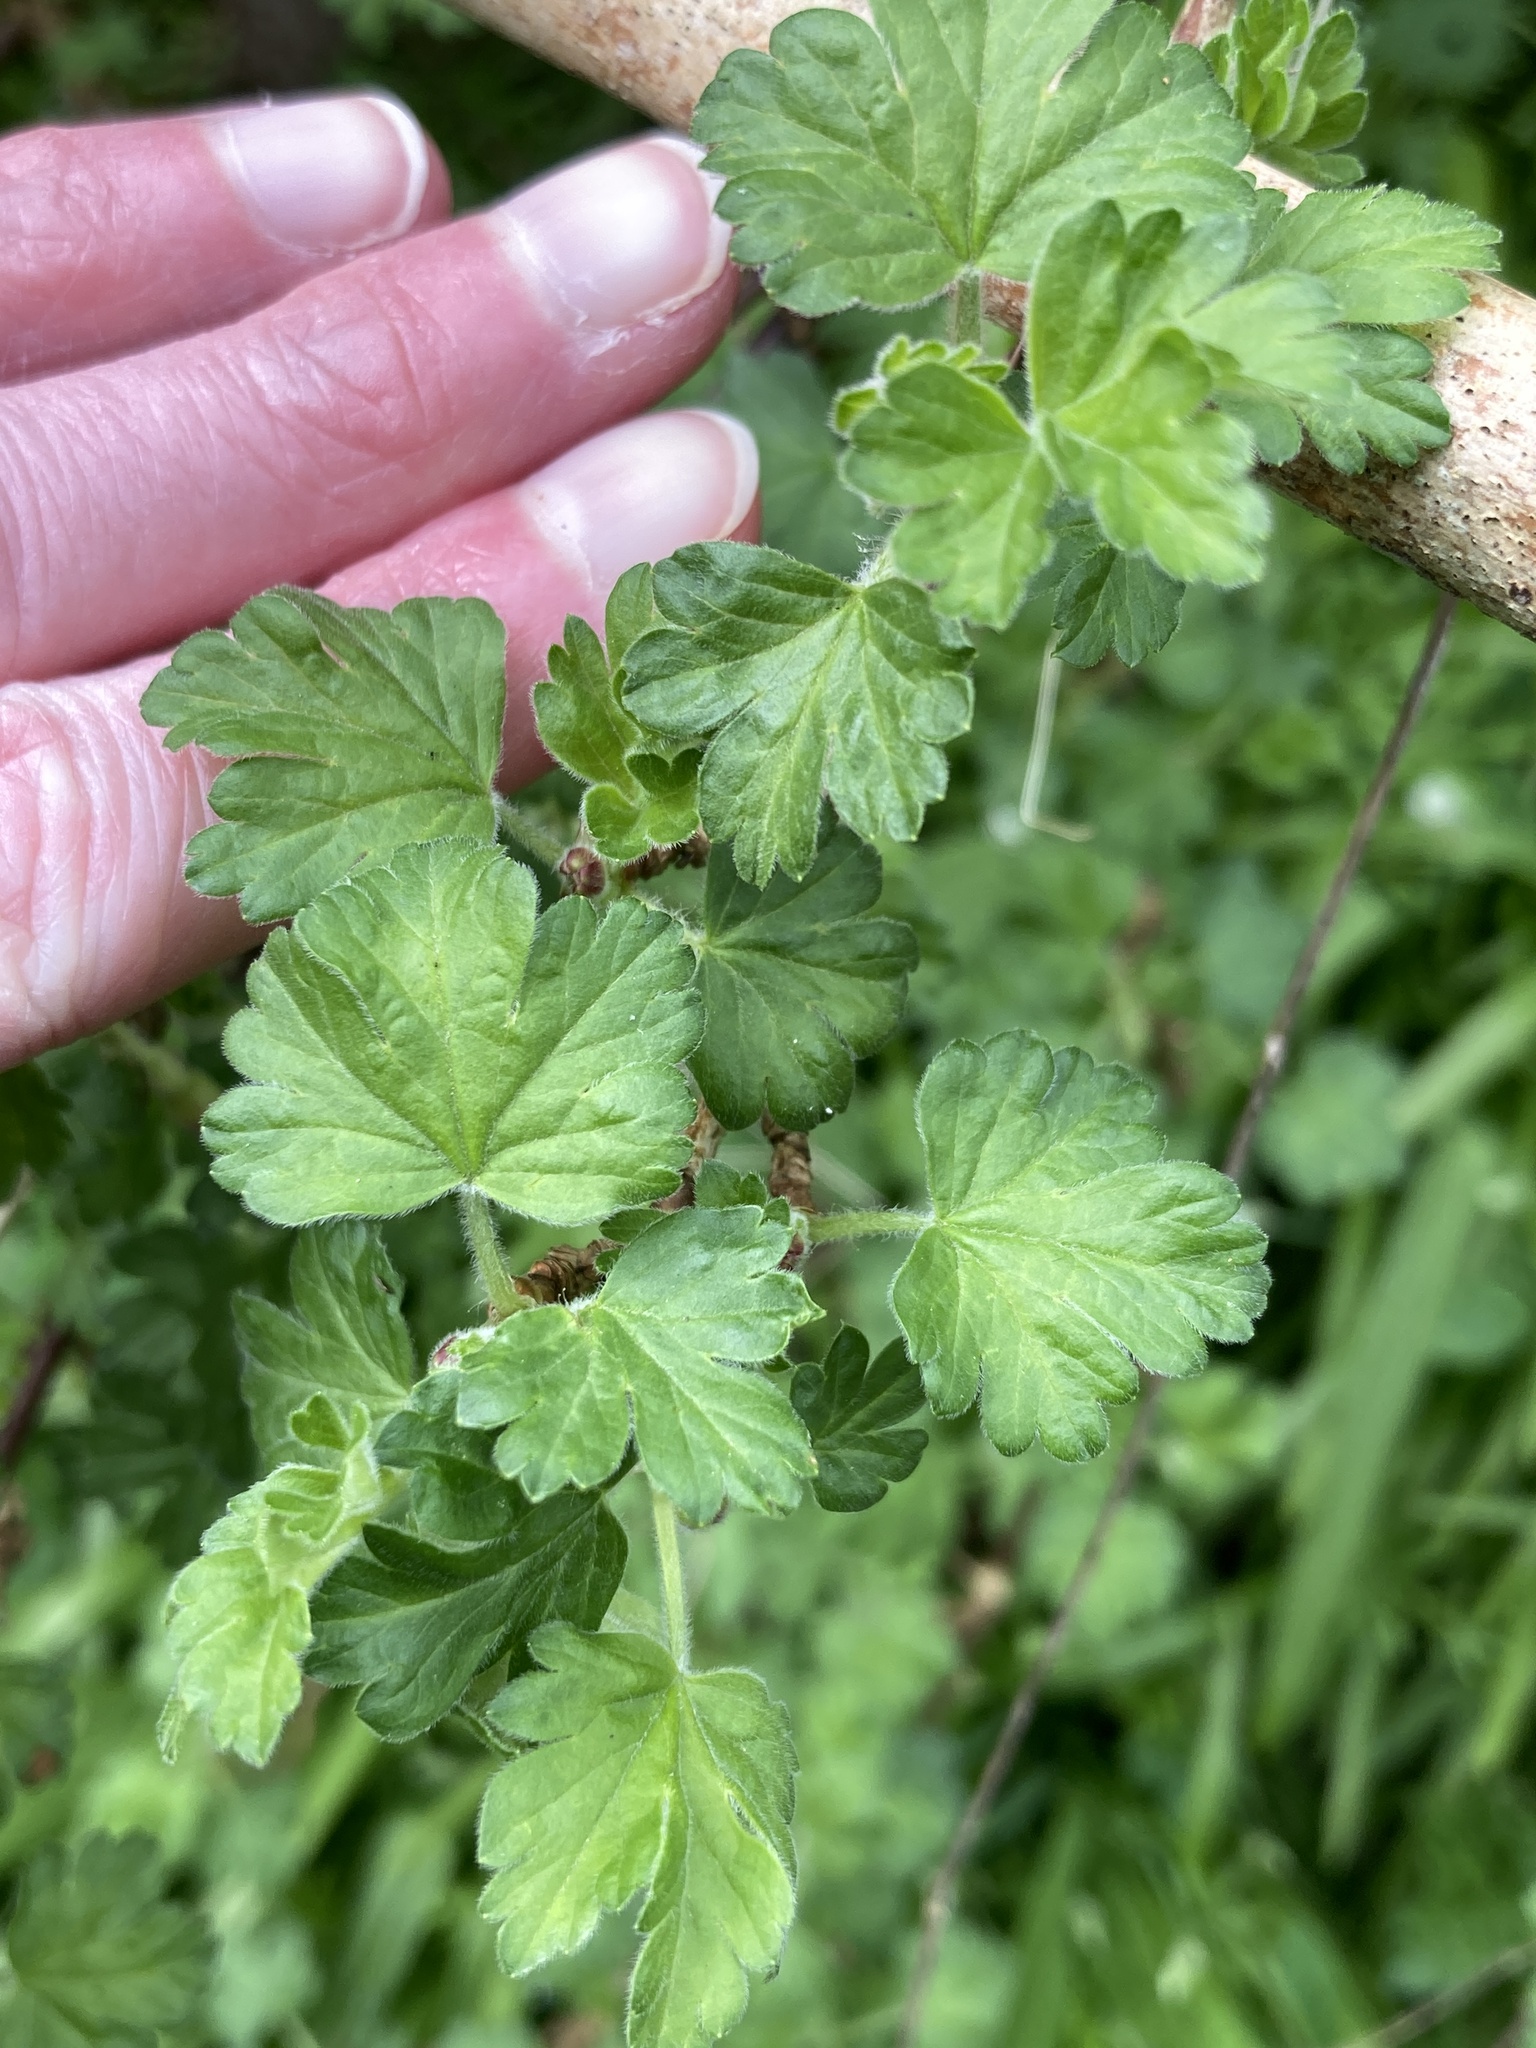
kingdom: Plantae
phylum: Tracheophyta
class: Magnoliopsida
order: Saxifragales
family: Grossulariaceae
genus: Ribes
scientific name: Ribes uva-crispa
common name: Gooseberry
